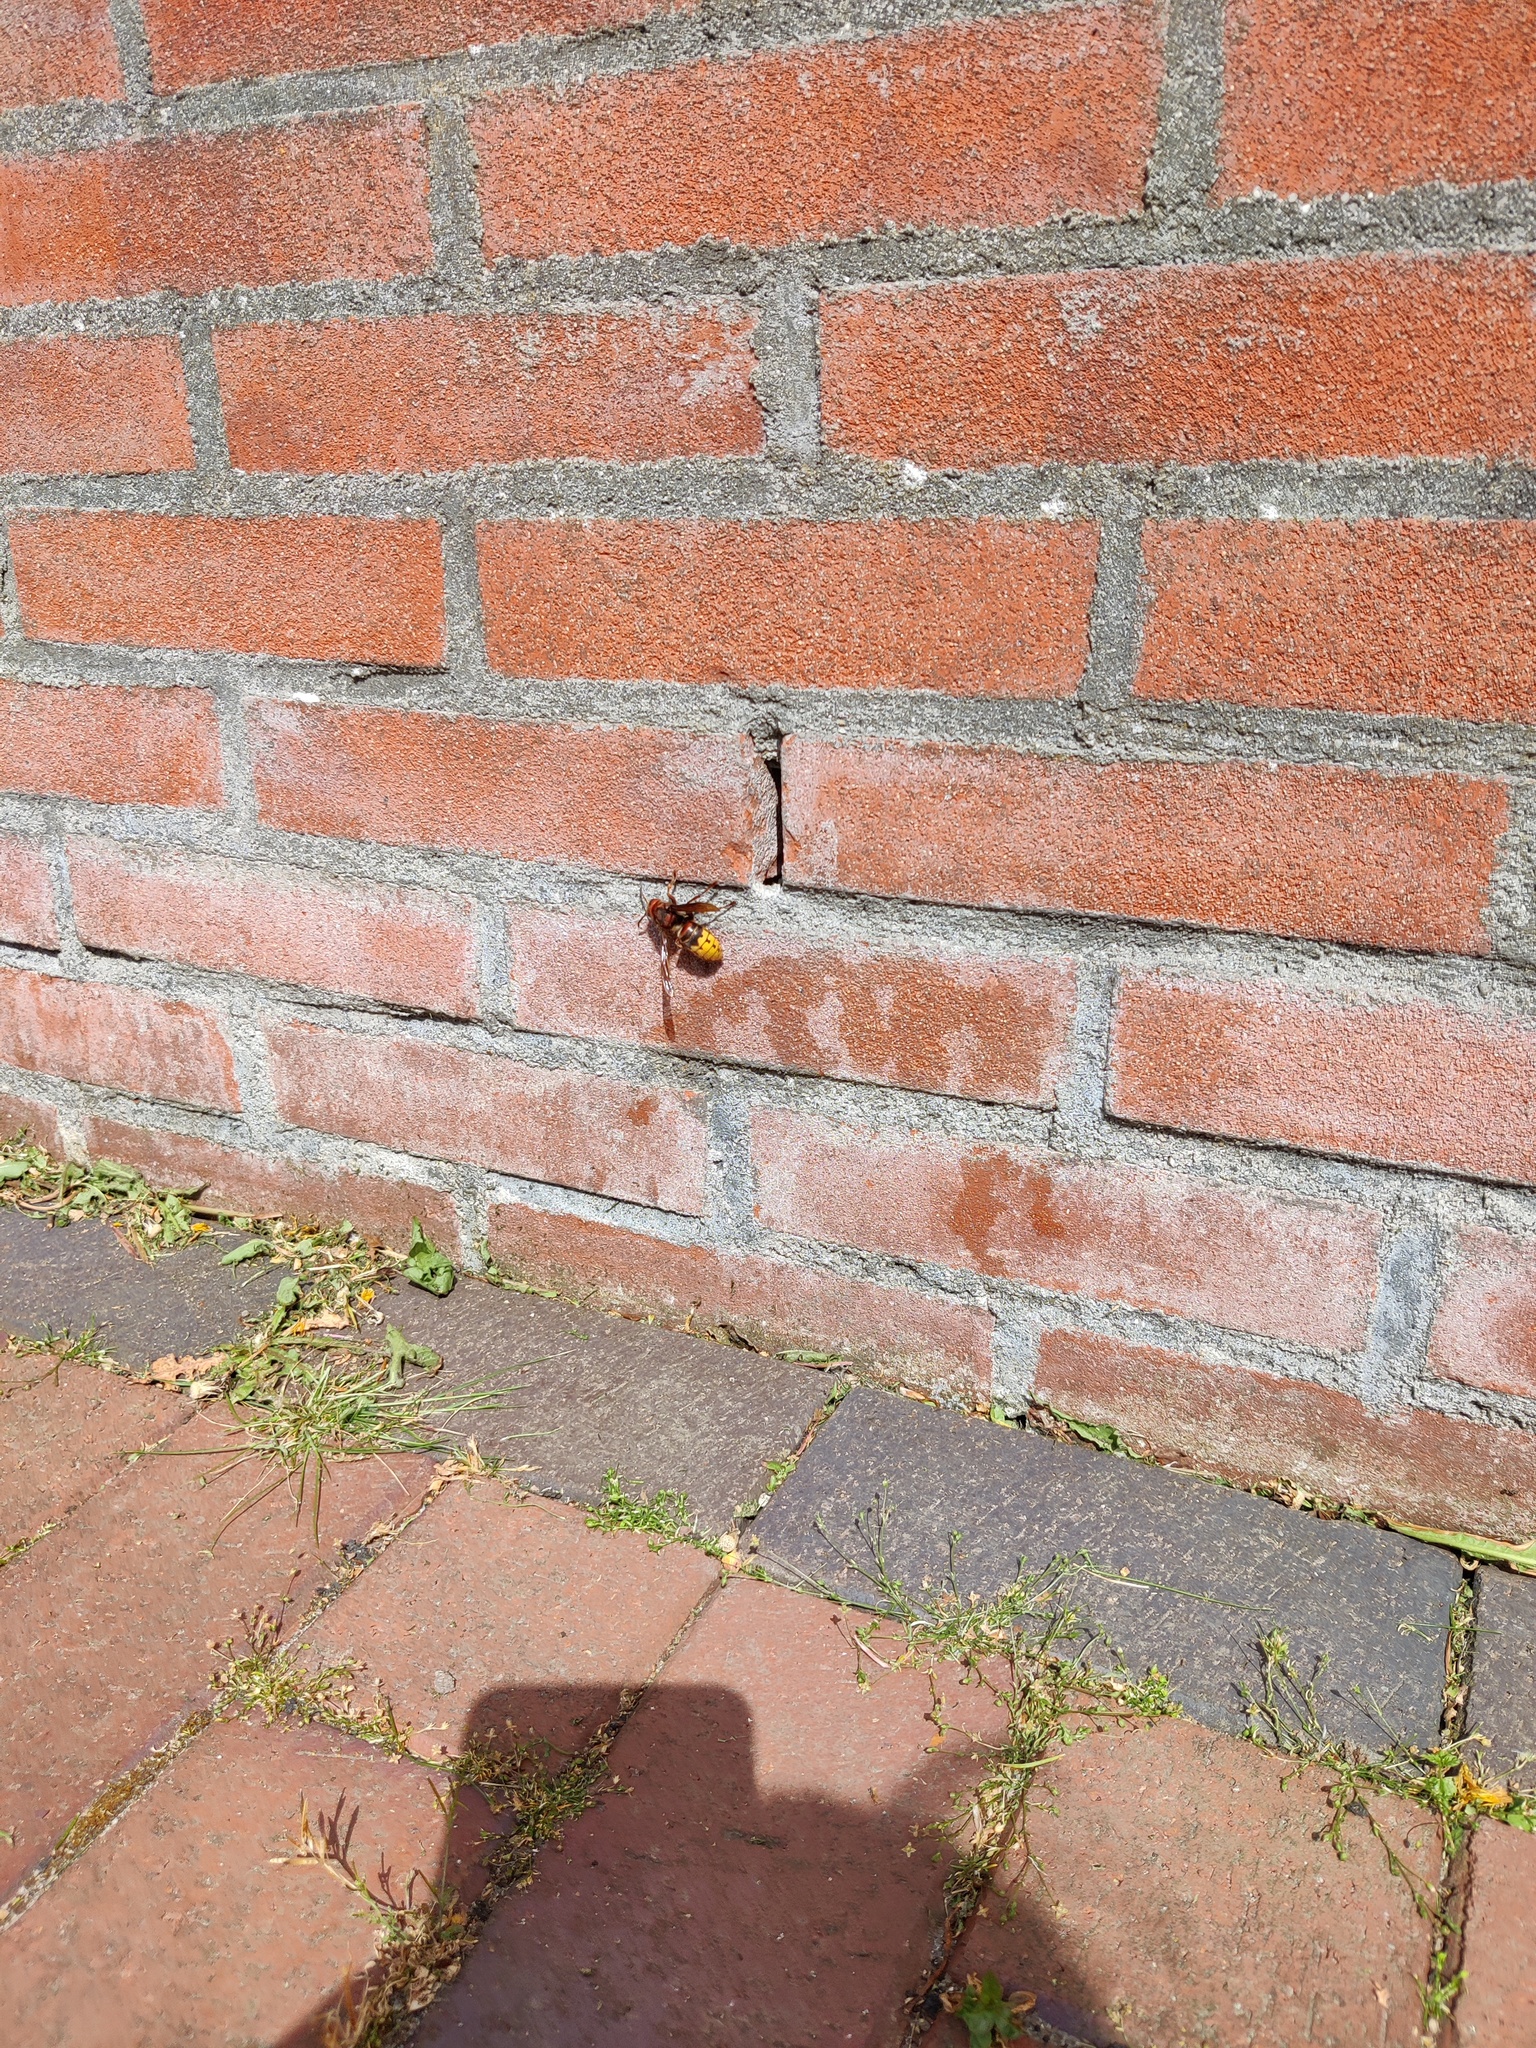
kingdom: Animalia
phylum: Arthropoda
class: Insecta
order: Hymenoptera
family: Vespidae
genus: Vespa
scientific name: Vespa crabro
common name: Hornet
